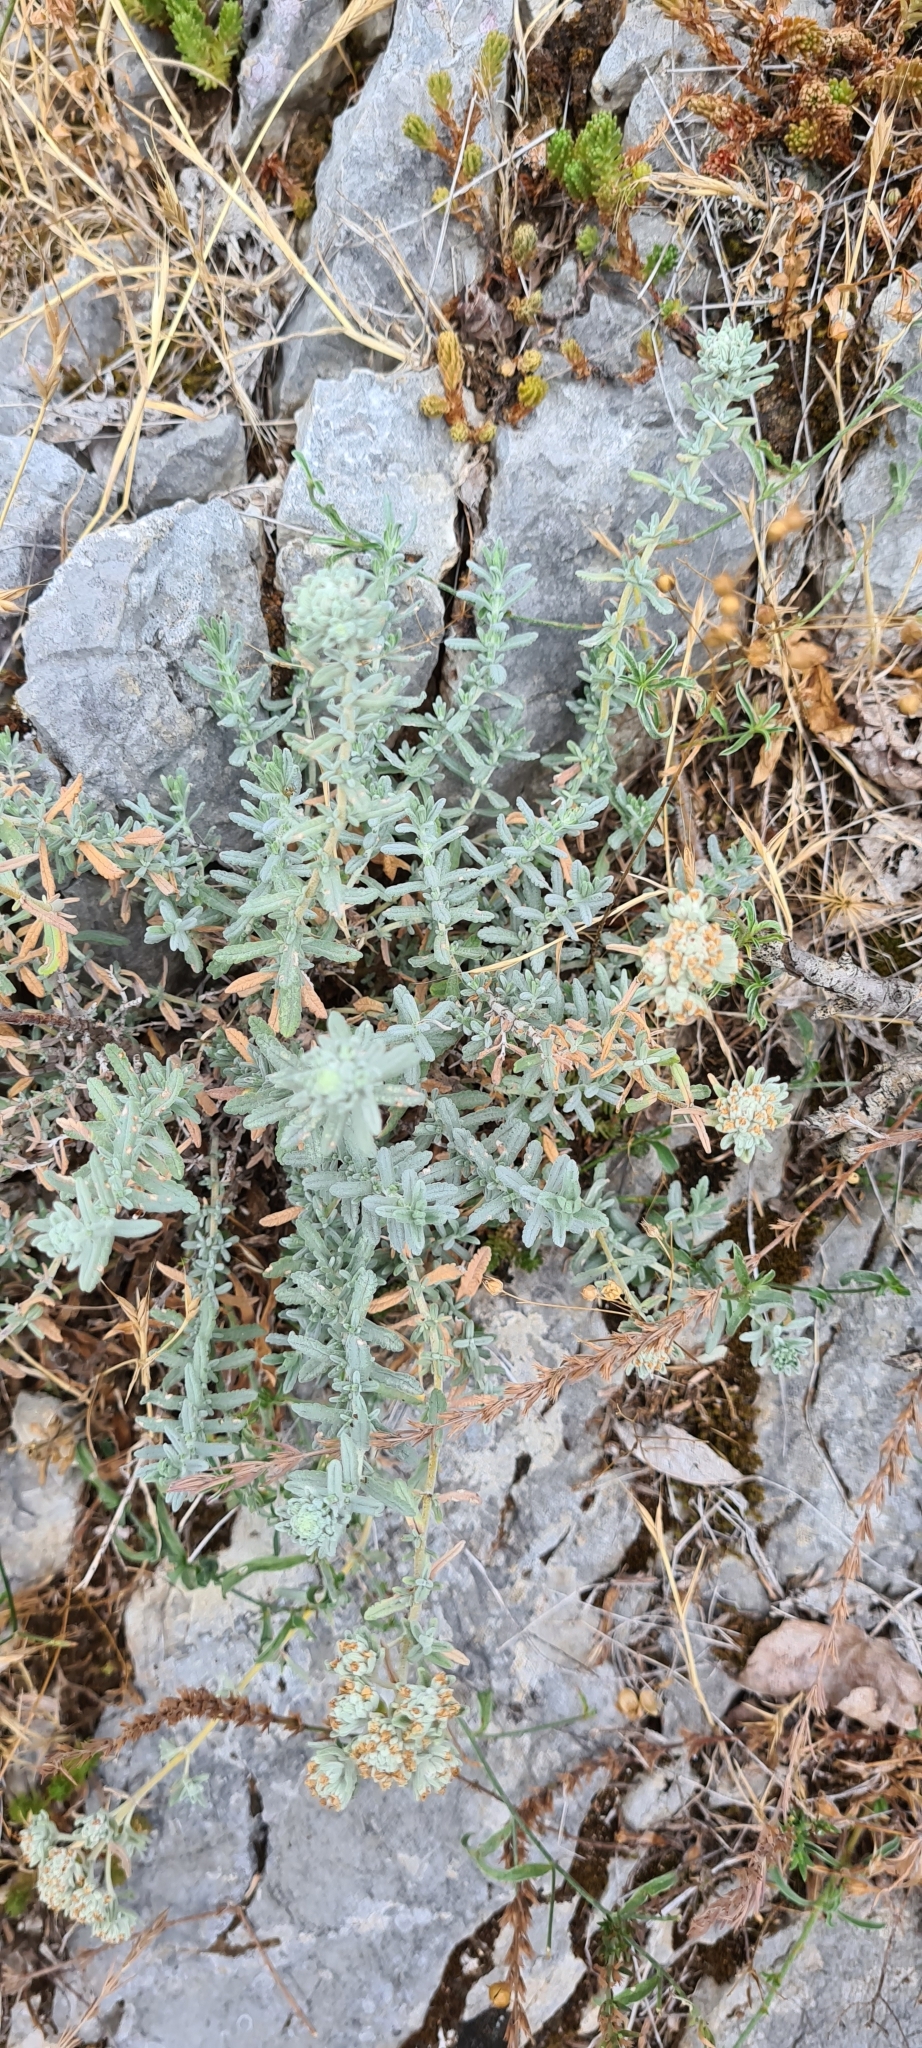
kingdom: Plantae
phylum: Tracheophyta
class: Magnoliopsida
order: Lamiales
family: Lamiaceae
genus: Teucrium
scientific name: Teucrium capitatum
